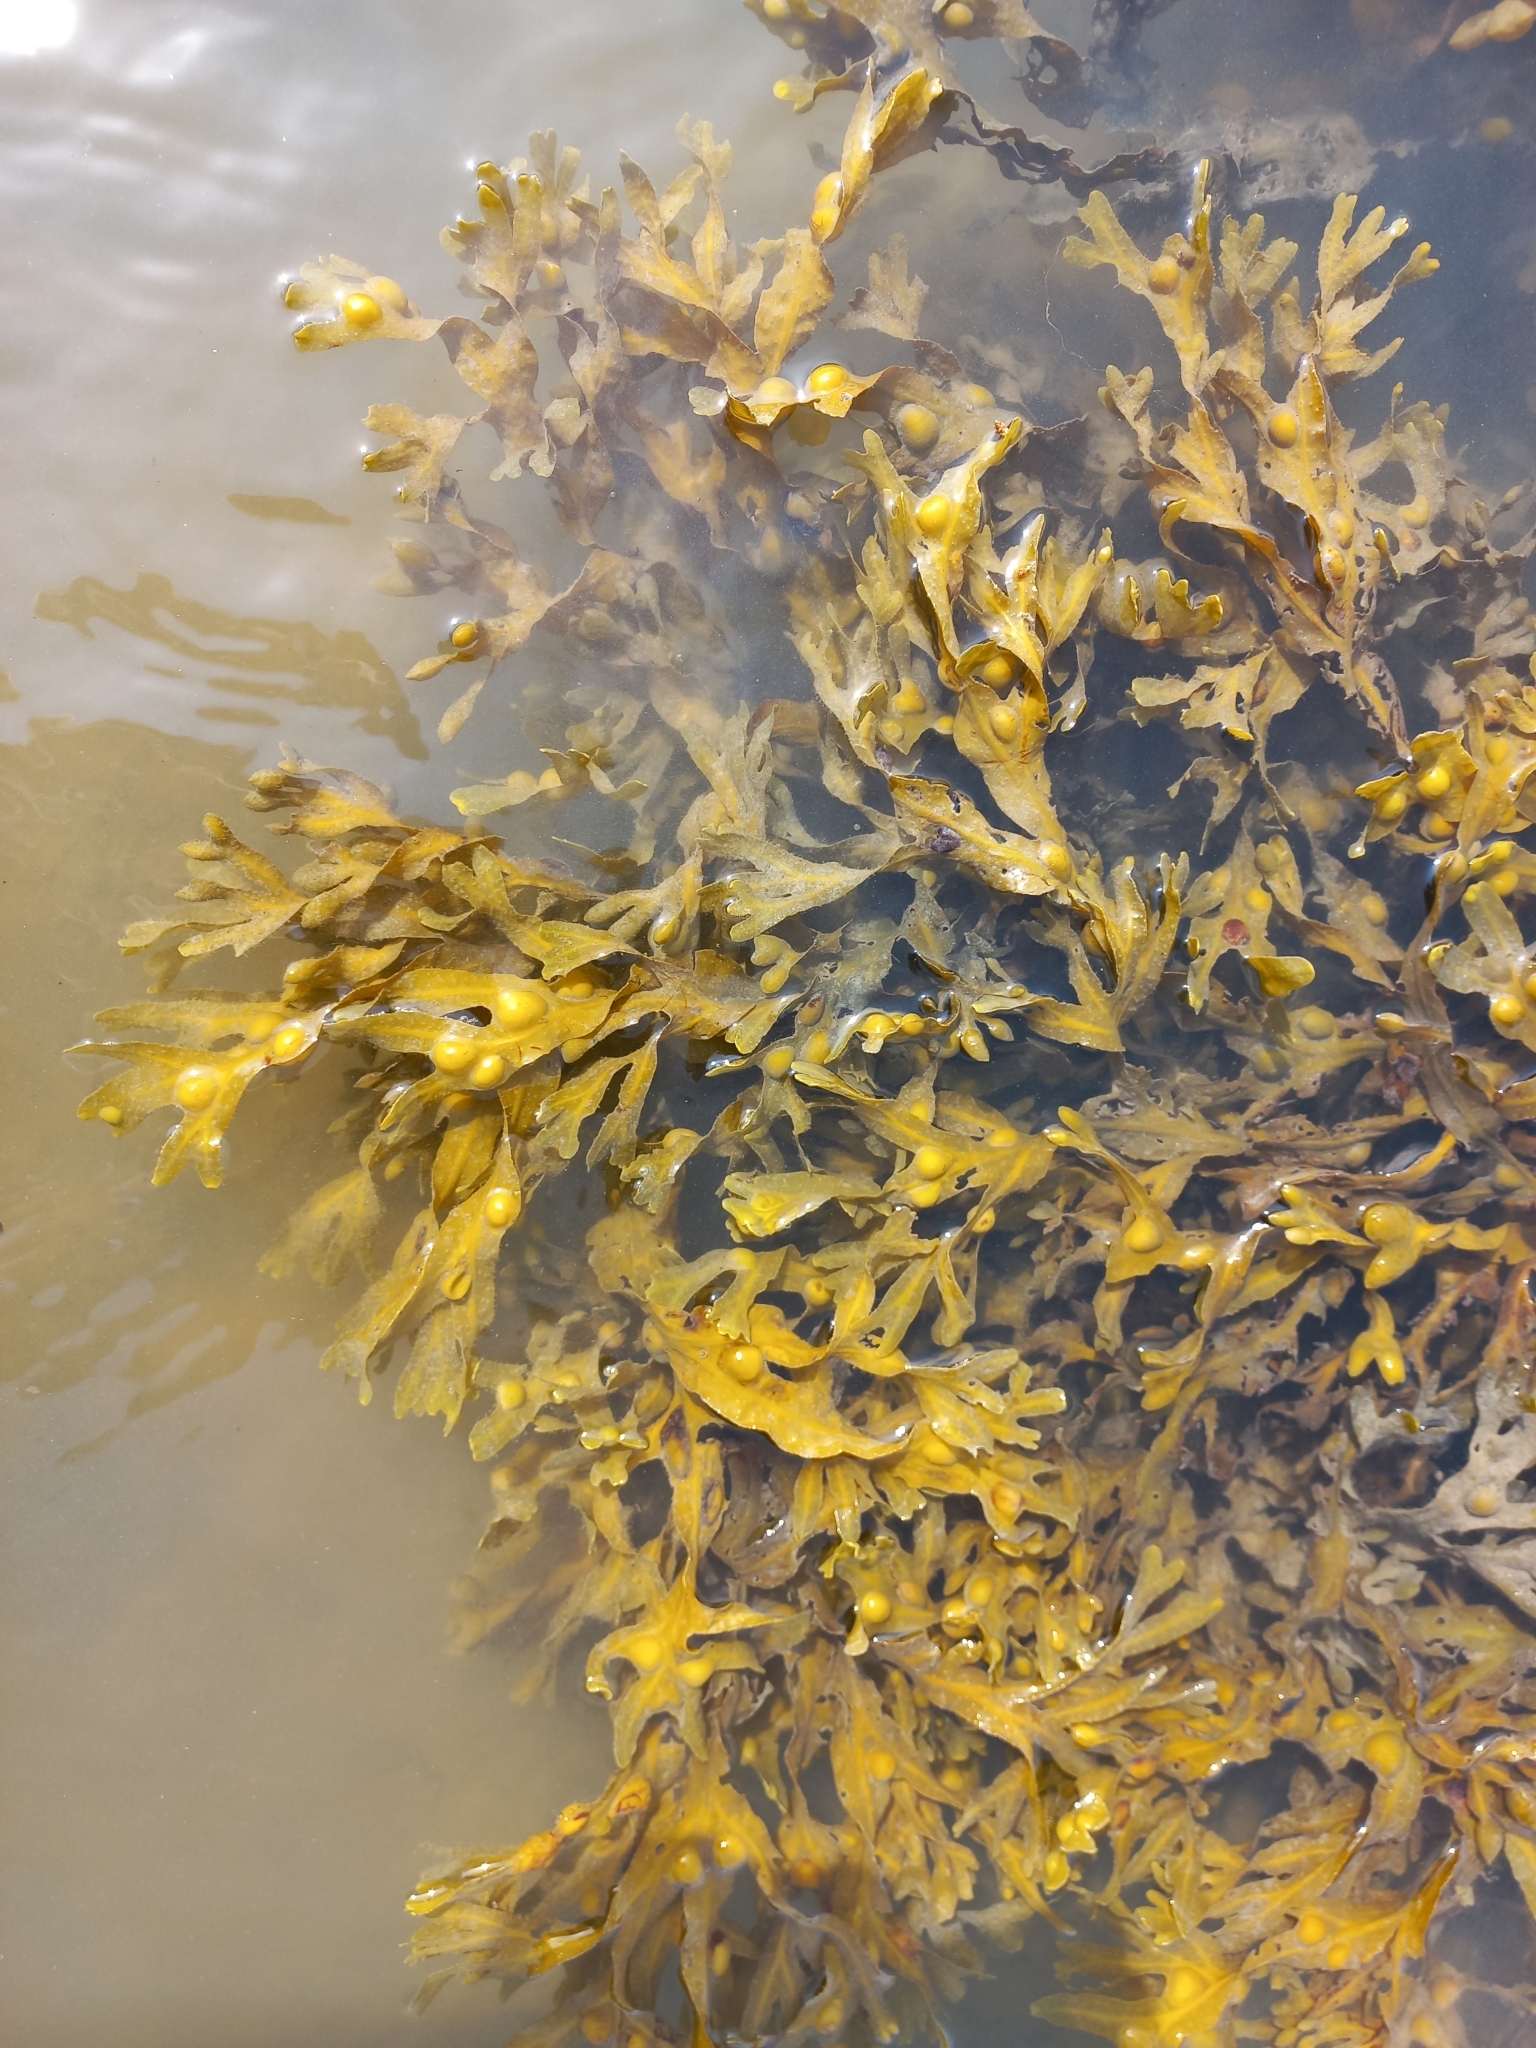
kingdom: Chromista
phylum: Ochrophyta
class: Phaeophyceae
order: Fucales
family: Fucaceae
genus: Fucus
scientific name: Fucus vesiculosus
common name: Bladder wrack
